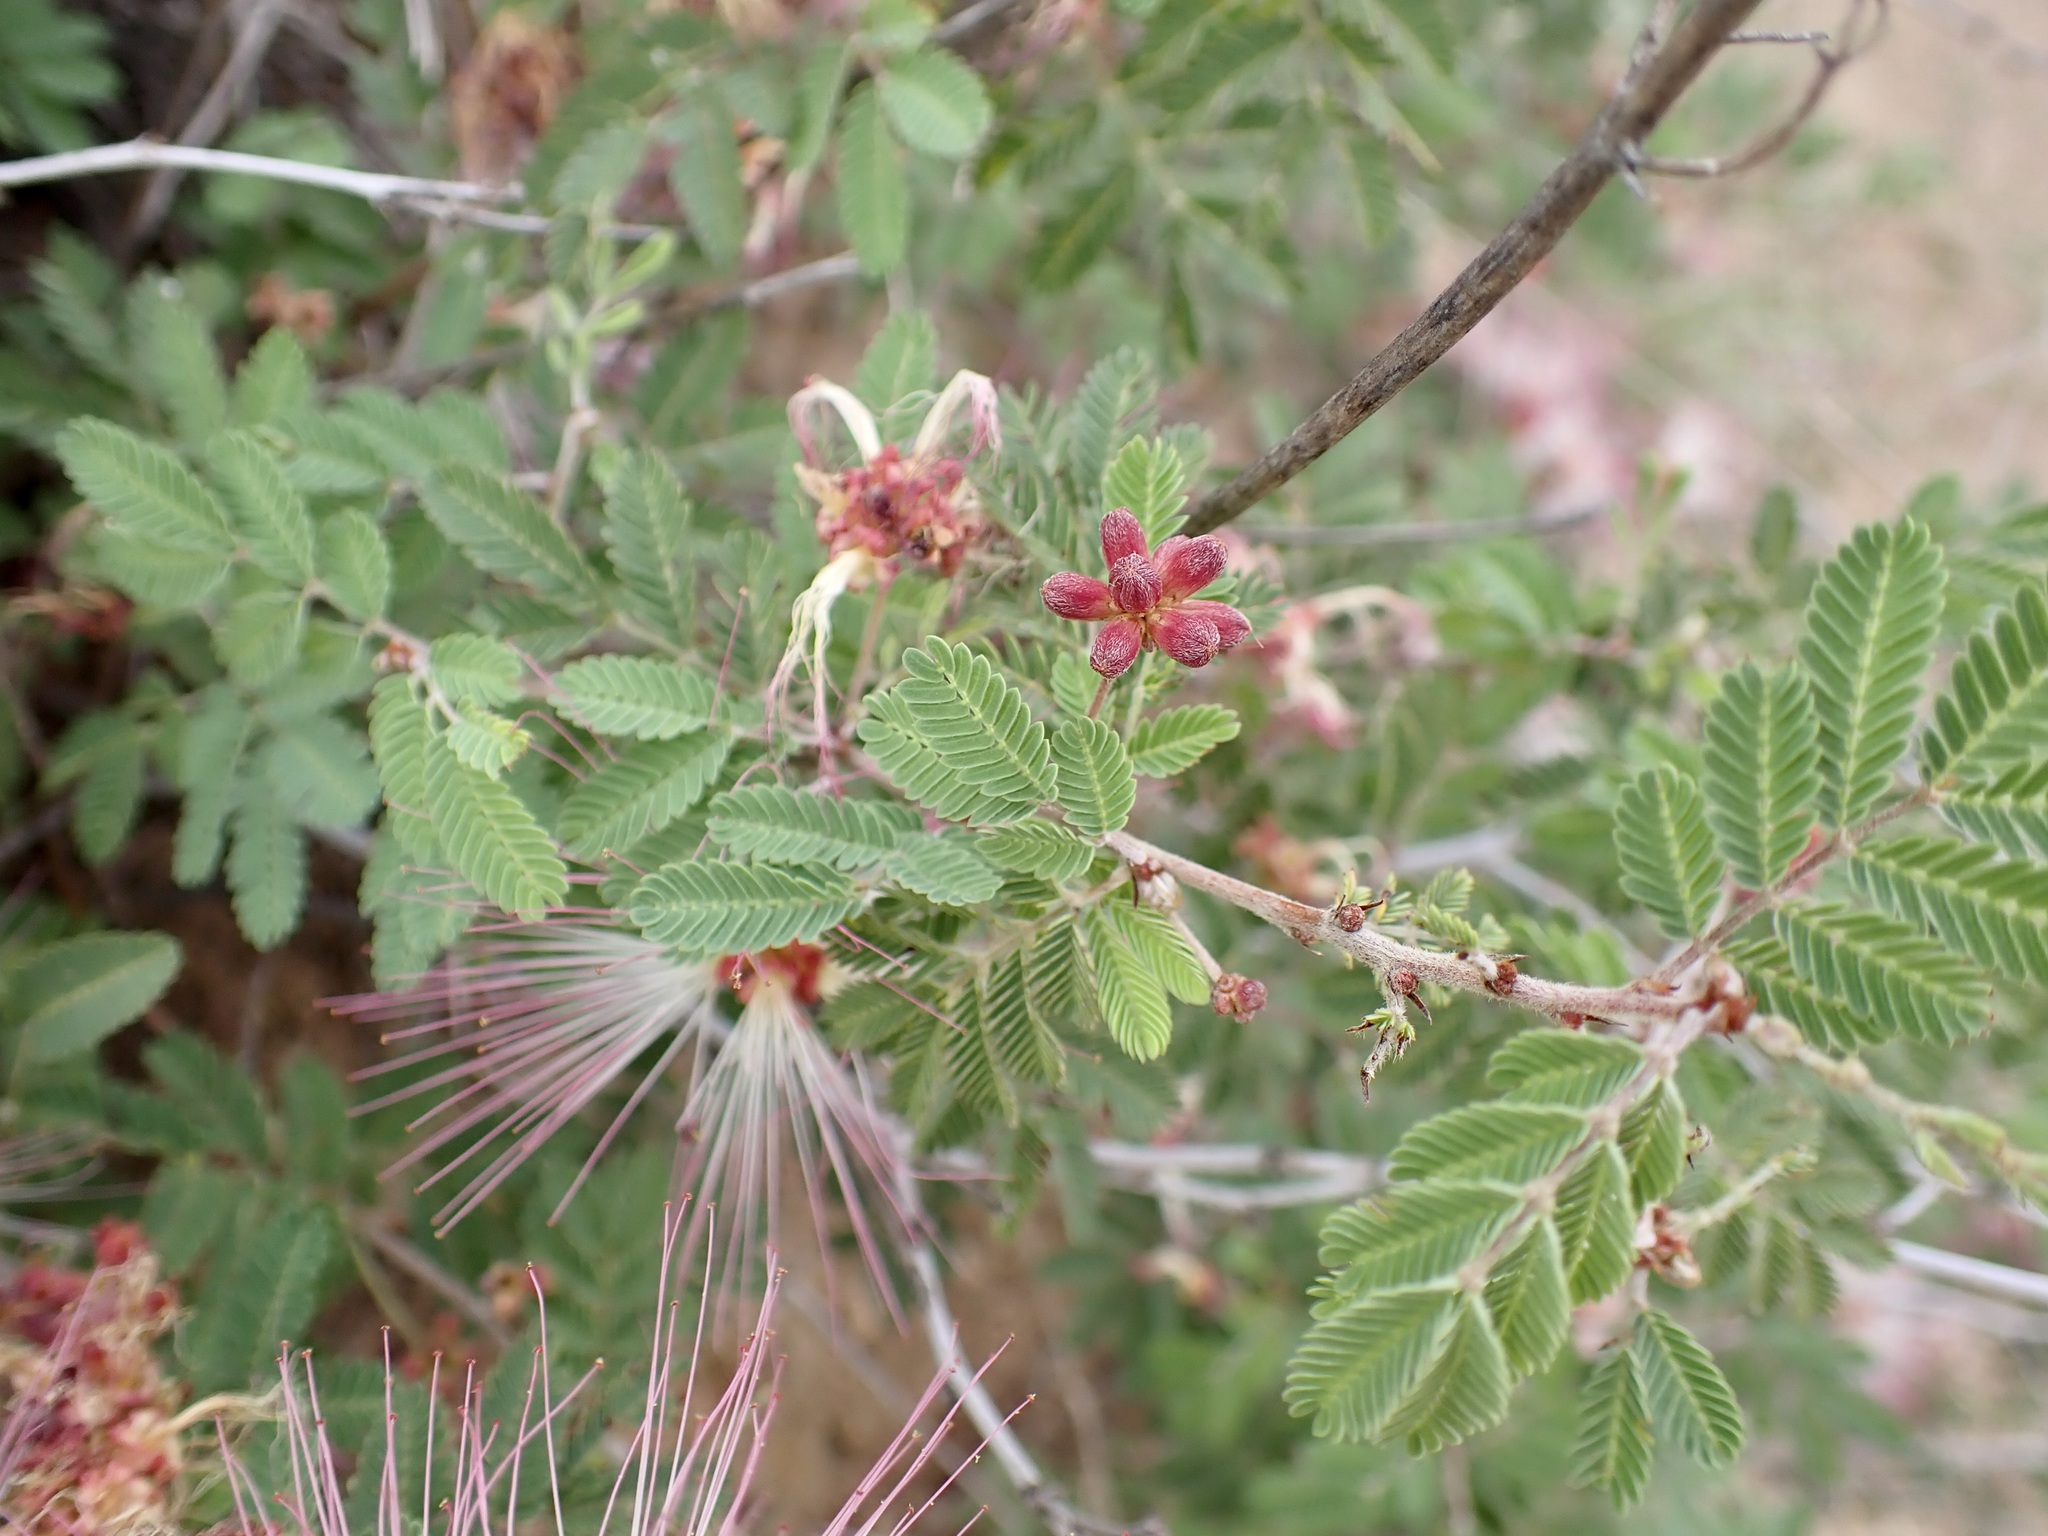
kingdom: Plantae
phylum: Tracheophyta
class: Magnoliopsida
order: Fabales
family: Fabaceae
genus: Calliandra
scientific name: Calliandra eriophylla
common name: Fairy-duster
